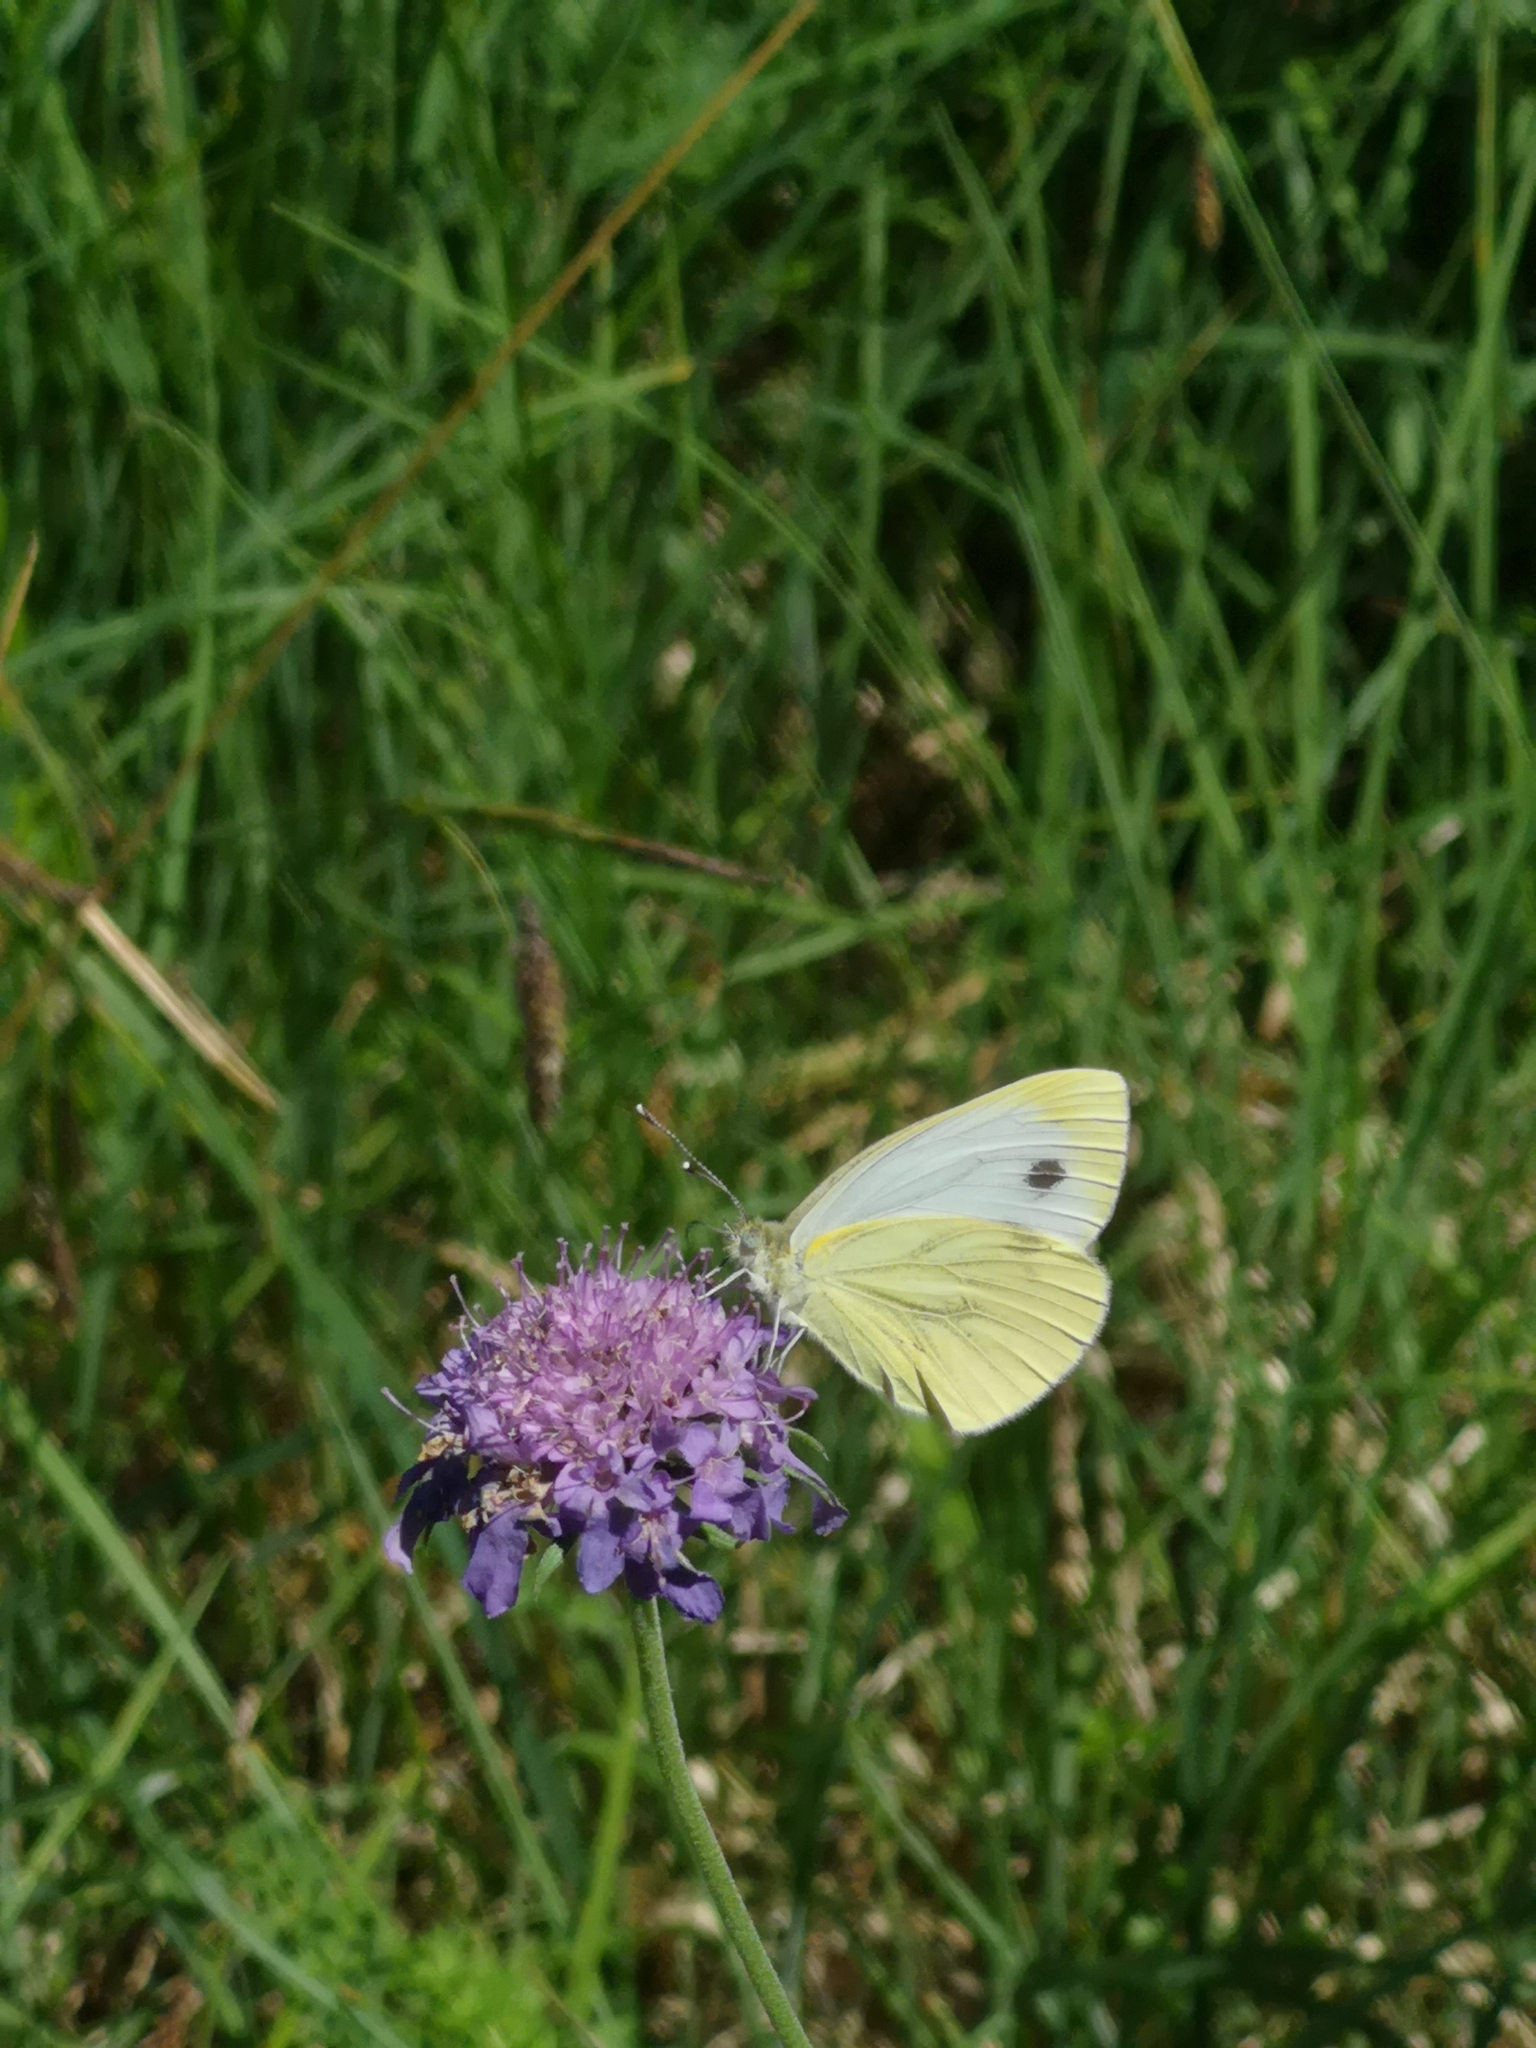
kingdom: Animalia
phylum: Arthropoda
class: Insecta
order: Lepidoptera
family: Pieridae
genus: Pieris
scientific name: Pieris napi
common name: Green-veined white
